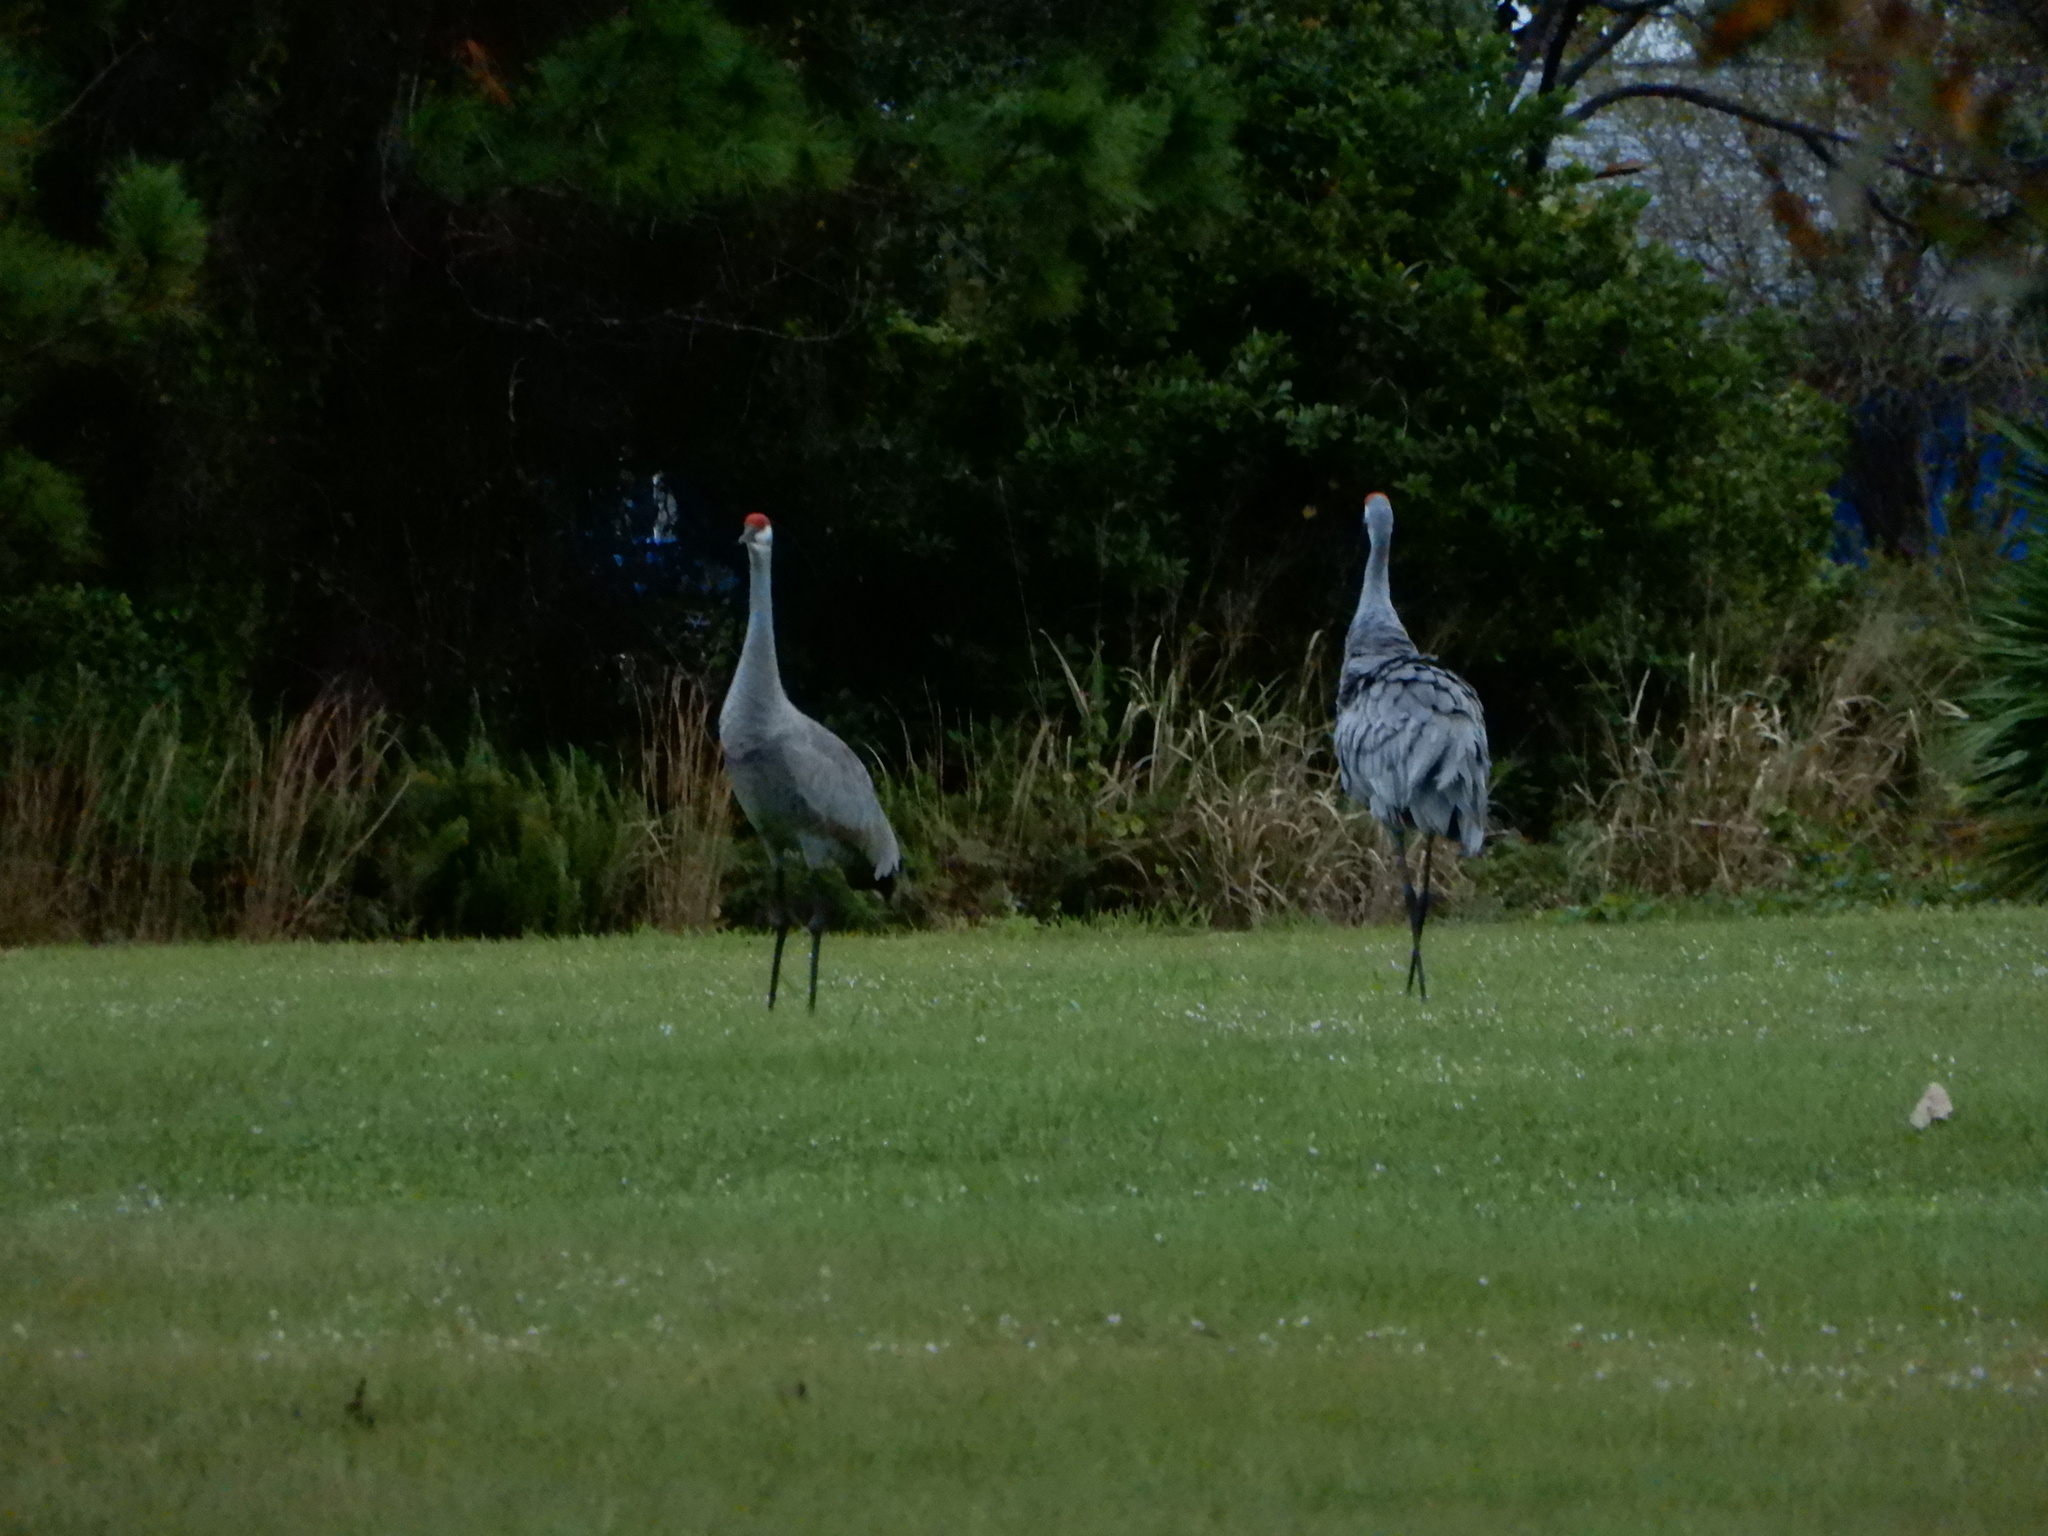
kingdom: Animalia
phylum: Chordata
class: Aves
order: Gruiformes
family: Gruidae
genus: Grus
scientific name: Grus canadensis
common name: Sandhill crane
